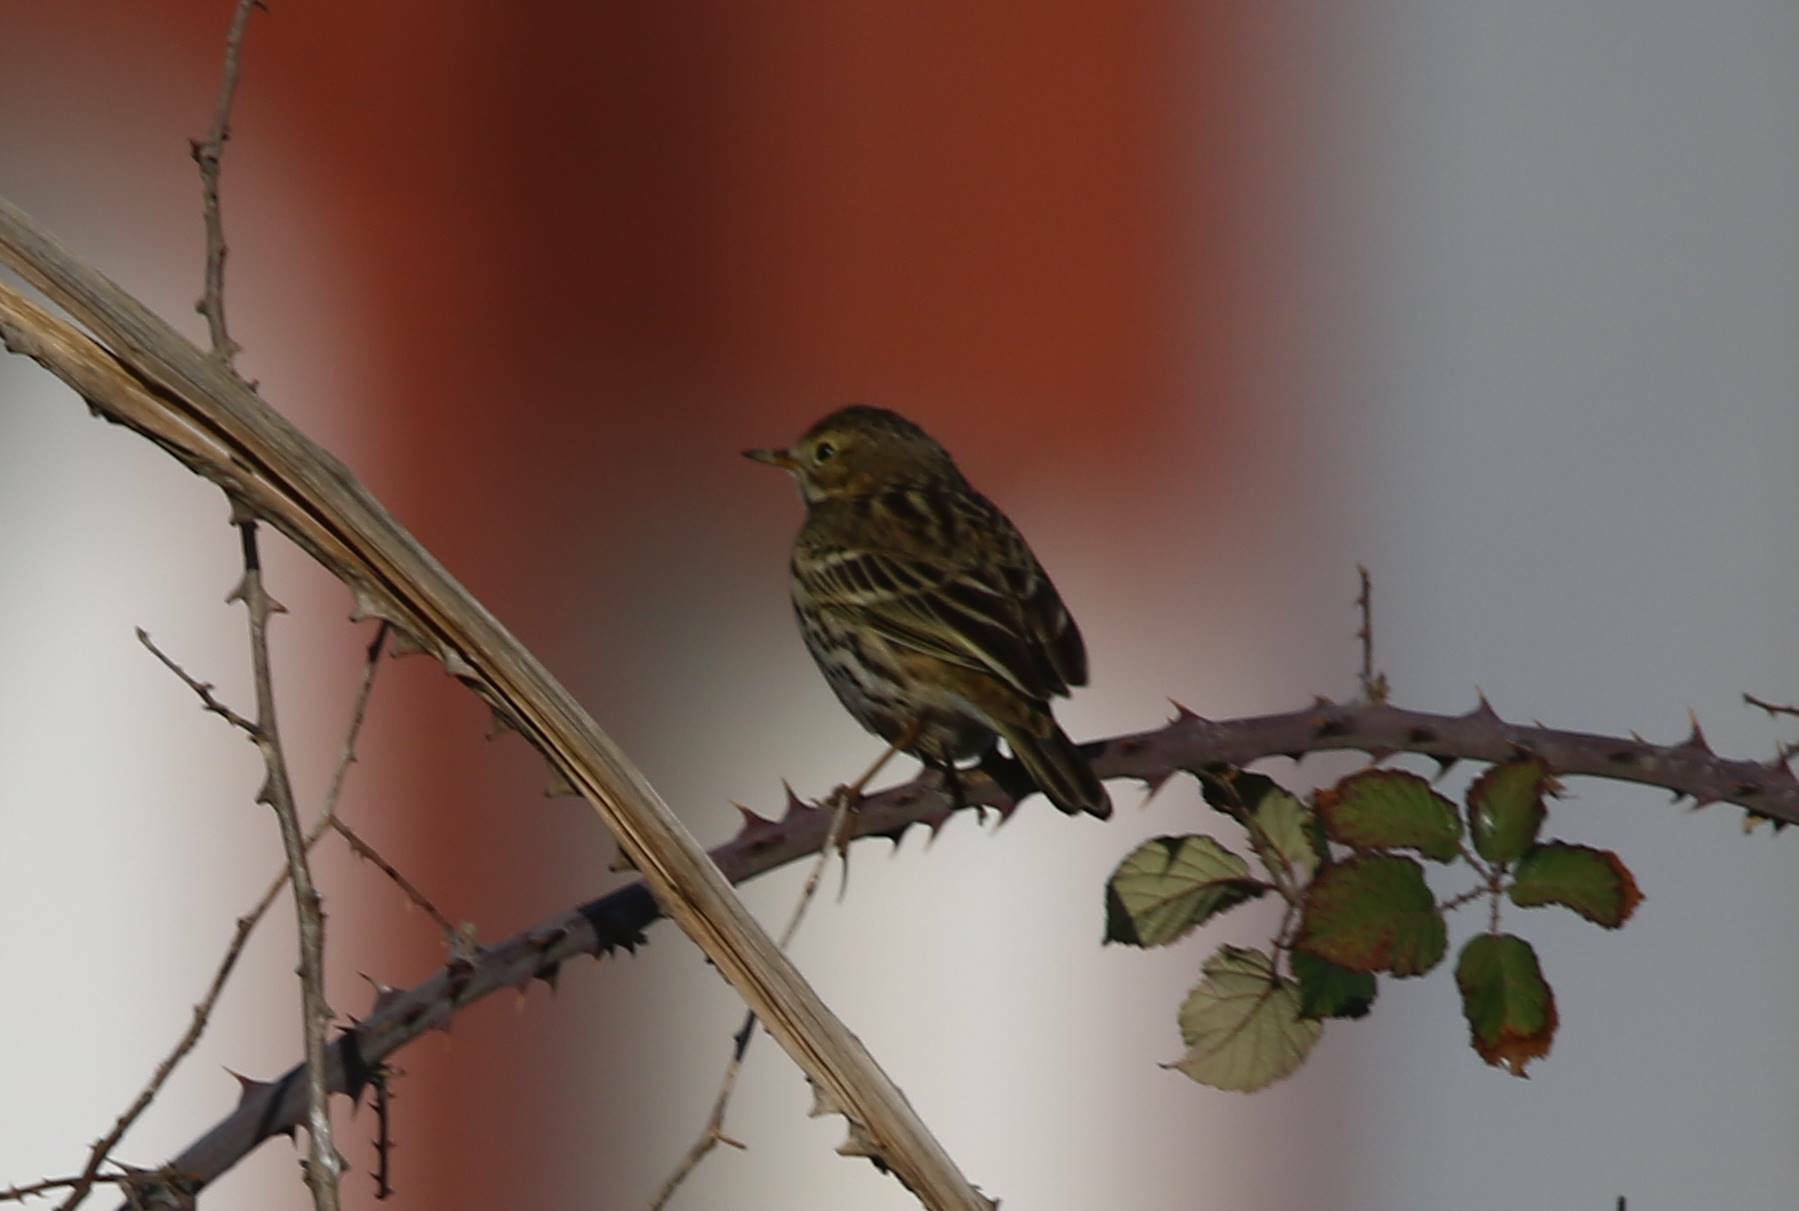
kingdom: Animalia
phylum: Chordata
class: Aves
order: Passeriformes
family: Motacillidae
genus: Anthus
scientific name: Anthus pratensis
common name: Meadow pipit
